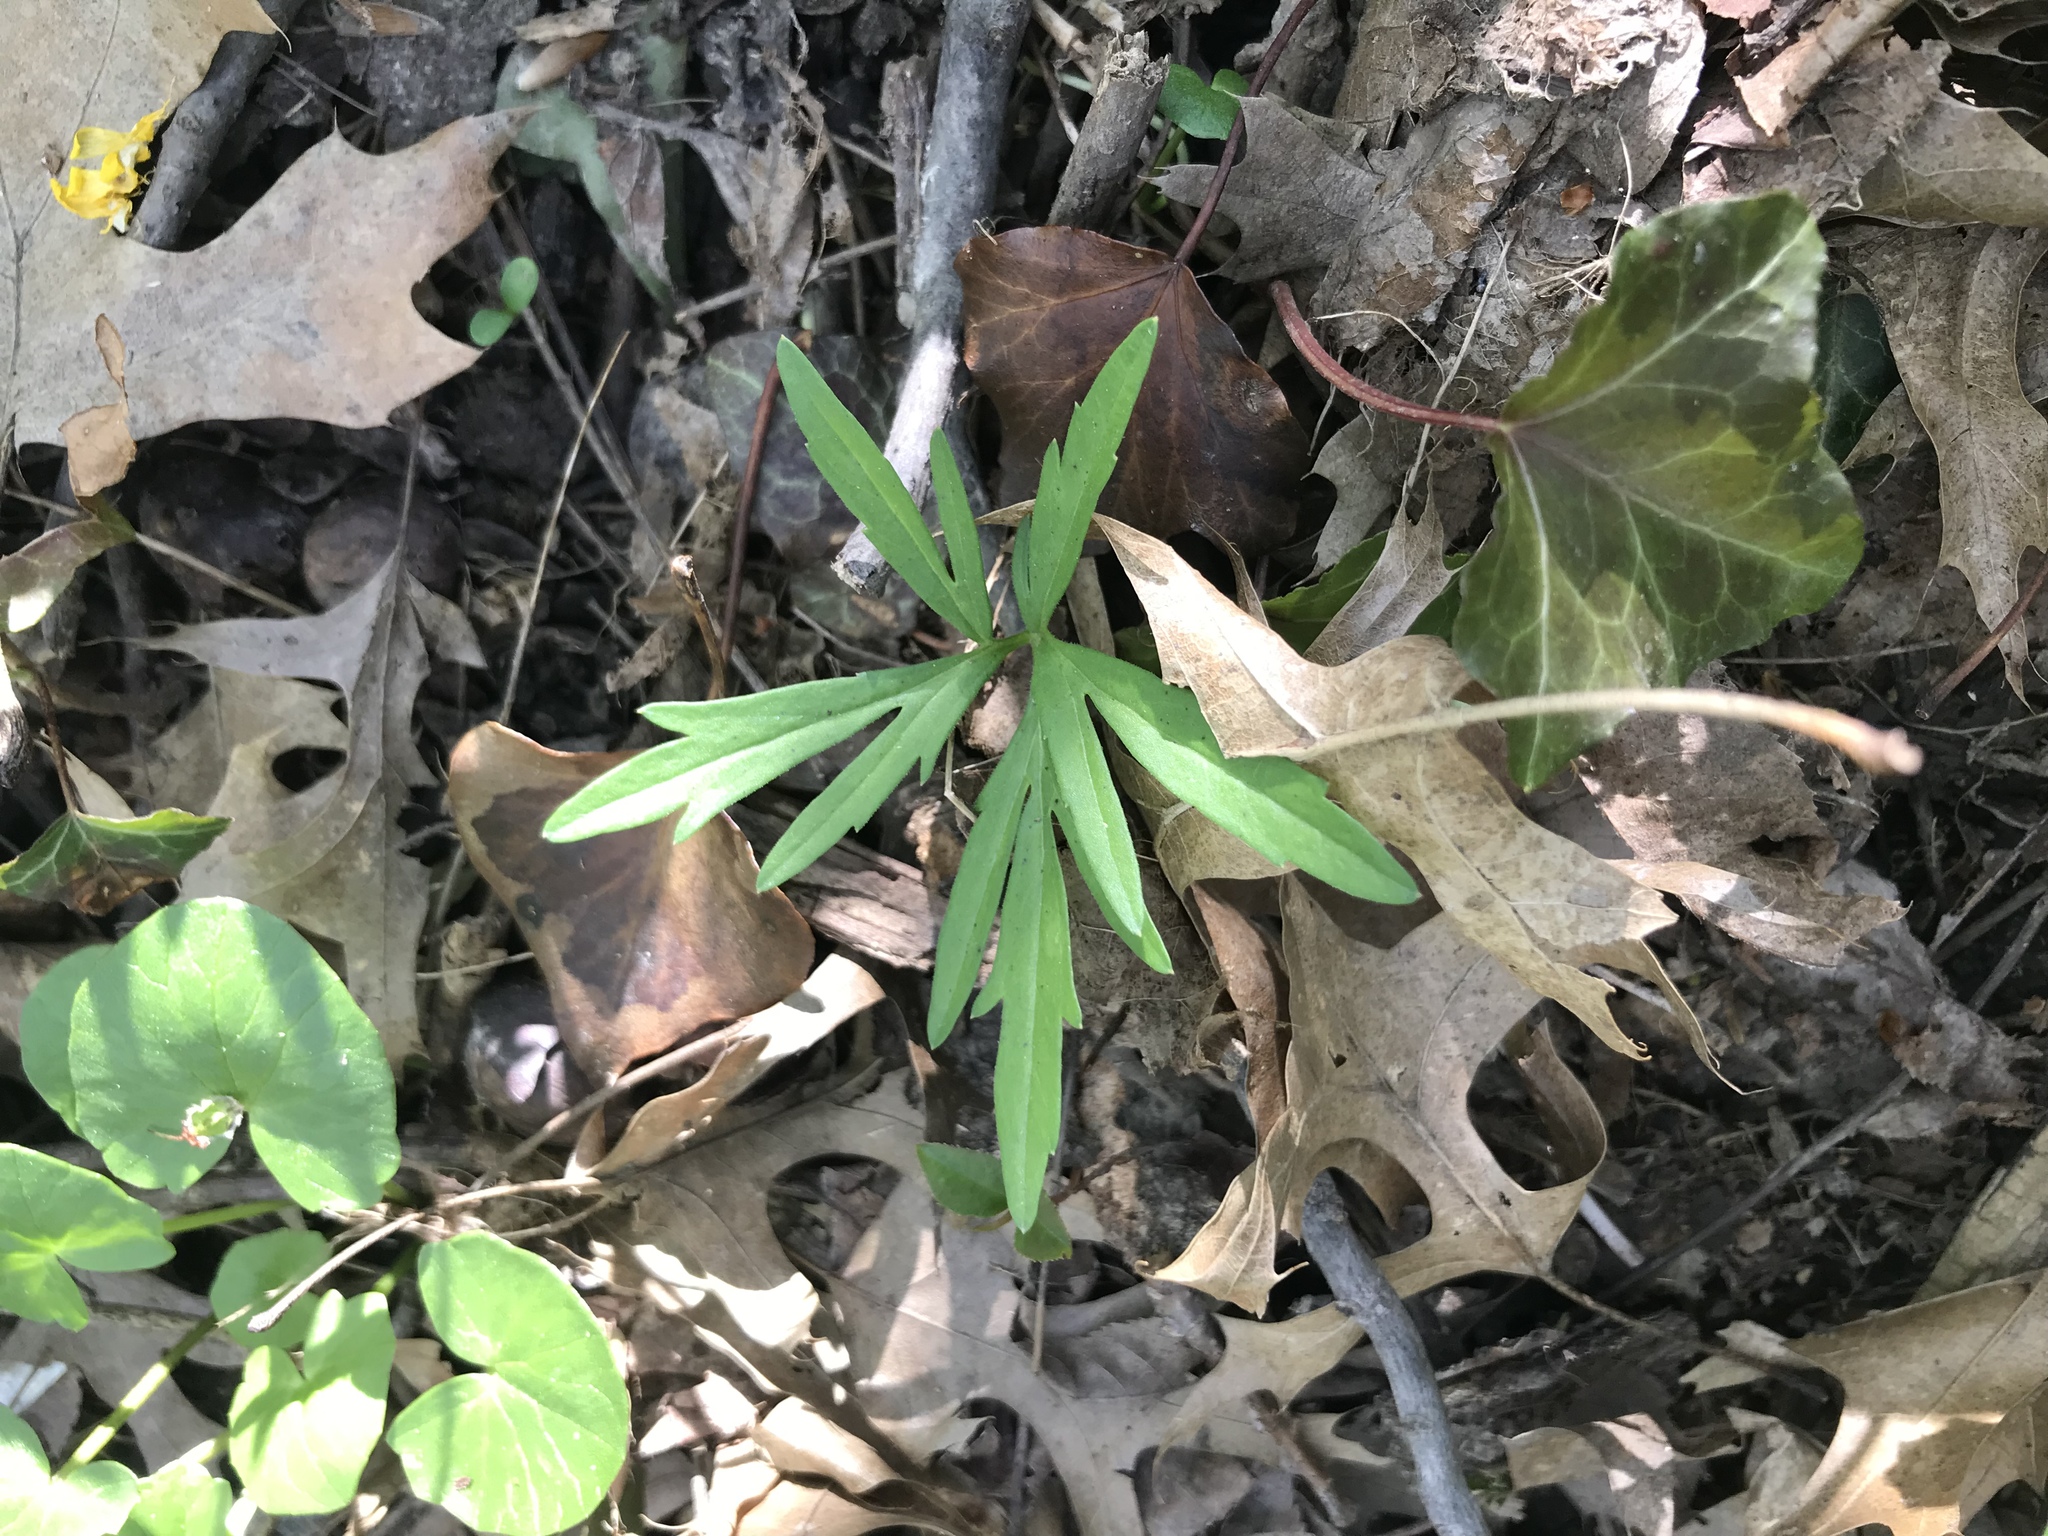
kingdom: Plantae
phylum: Tracheophyta
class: Magnoliopsida
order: Brassicales
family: Brassicaceae
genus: Cardamine
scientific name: Cardamine concatenata
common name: Cut-leaf toothcup
